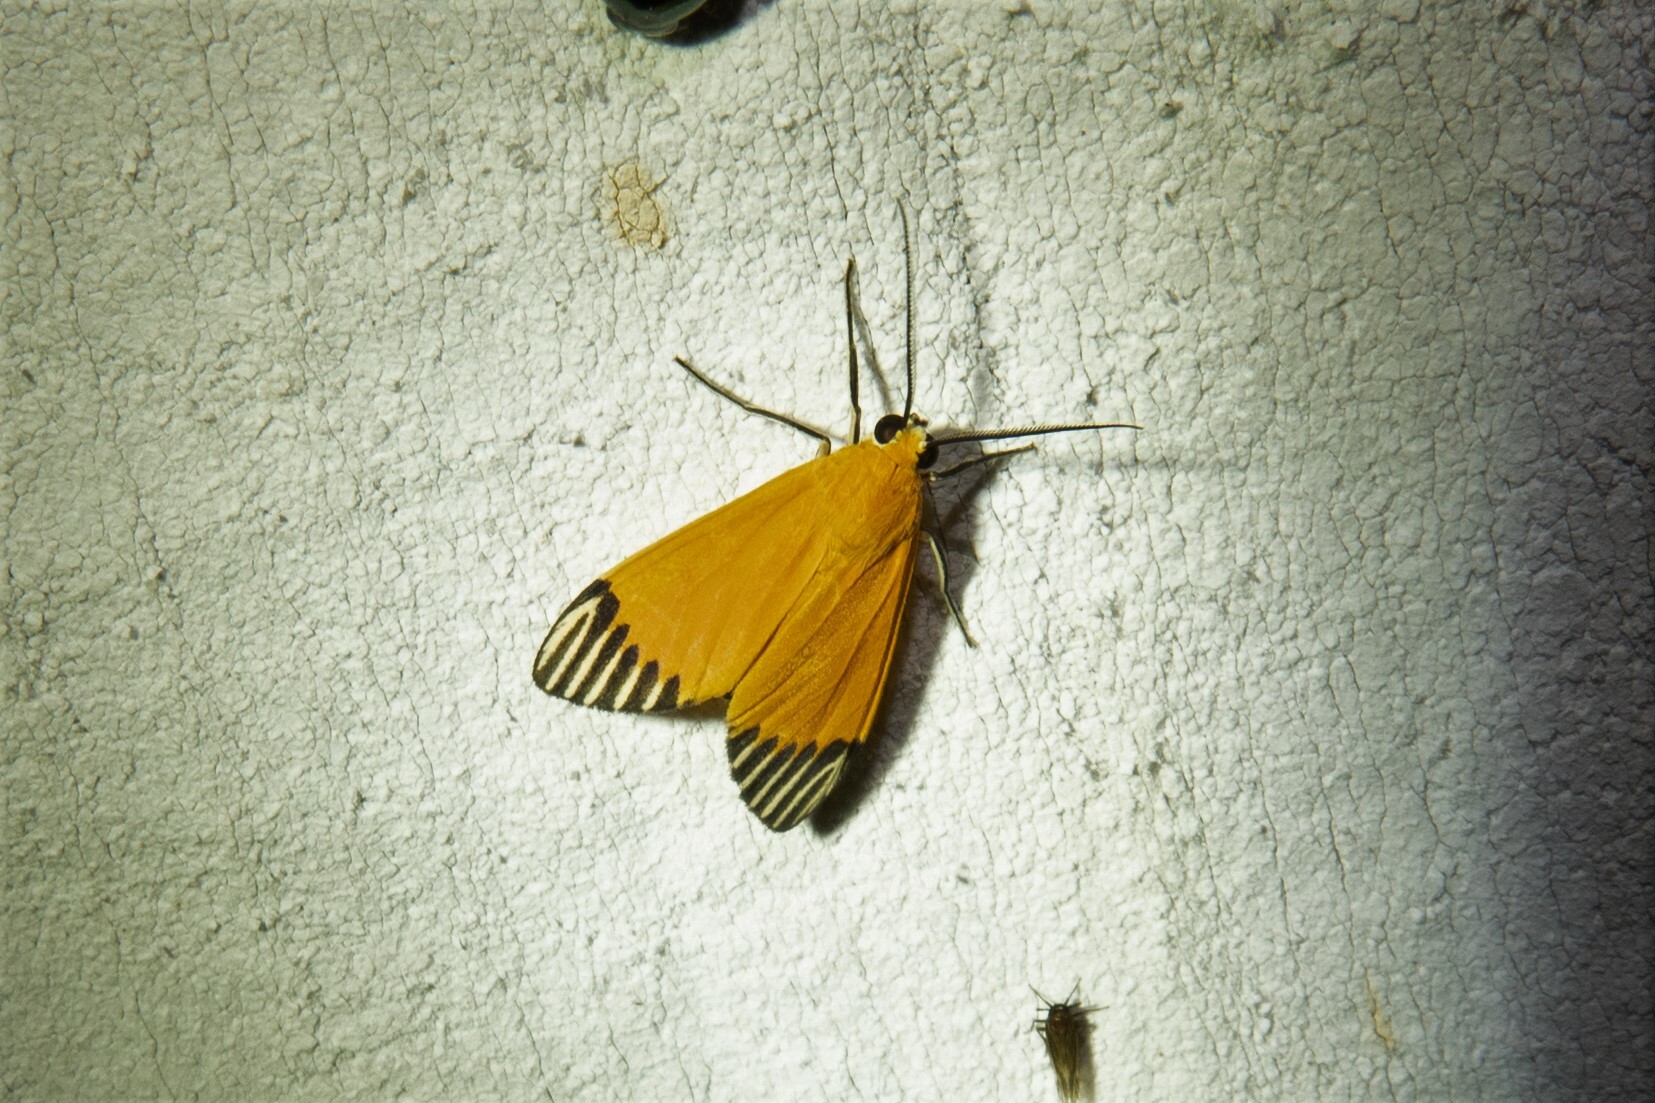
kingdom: Animalia
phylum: Arthropoda
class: Insecta
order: Lepidoptera
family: Erebidae
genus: Uranophora
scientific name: Uranophora walkeri
